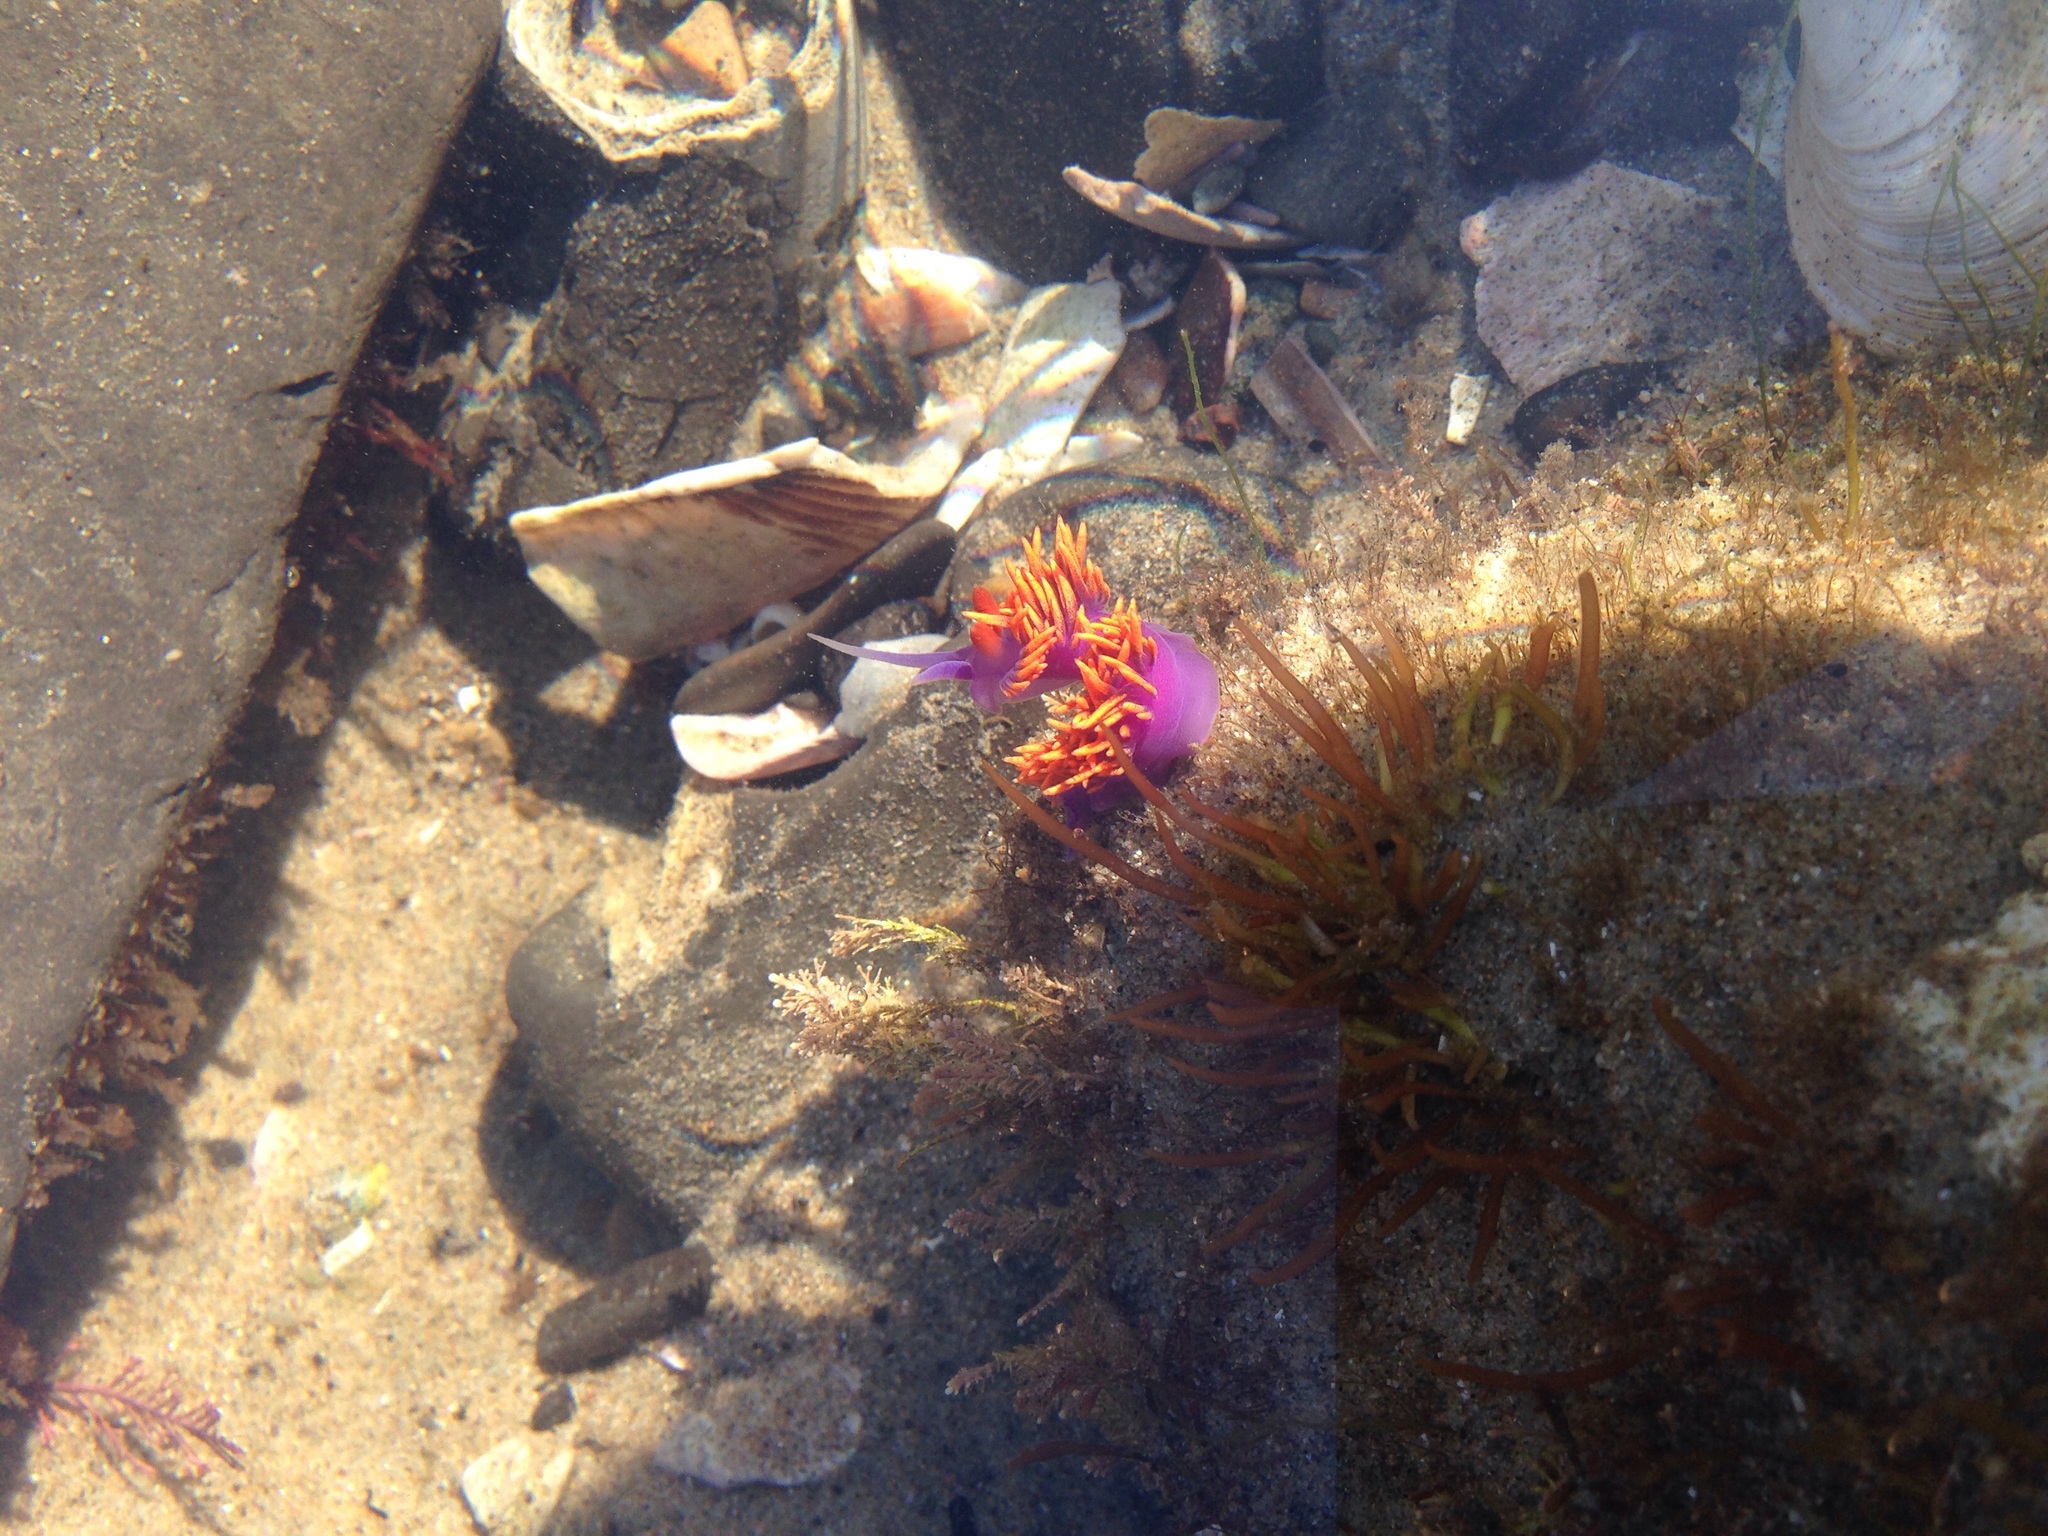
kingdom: Animalia
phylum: Mollusca
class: Gastropoda
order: Nudibranchia
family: Flabellinopsidae
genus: Flabellinopsis
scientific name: Flabellinopsis iodinea
